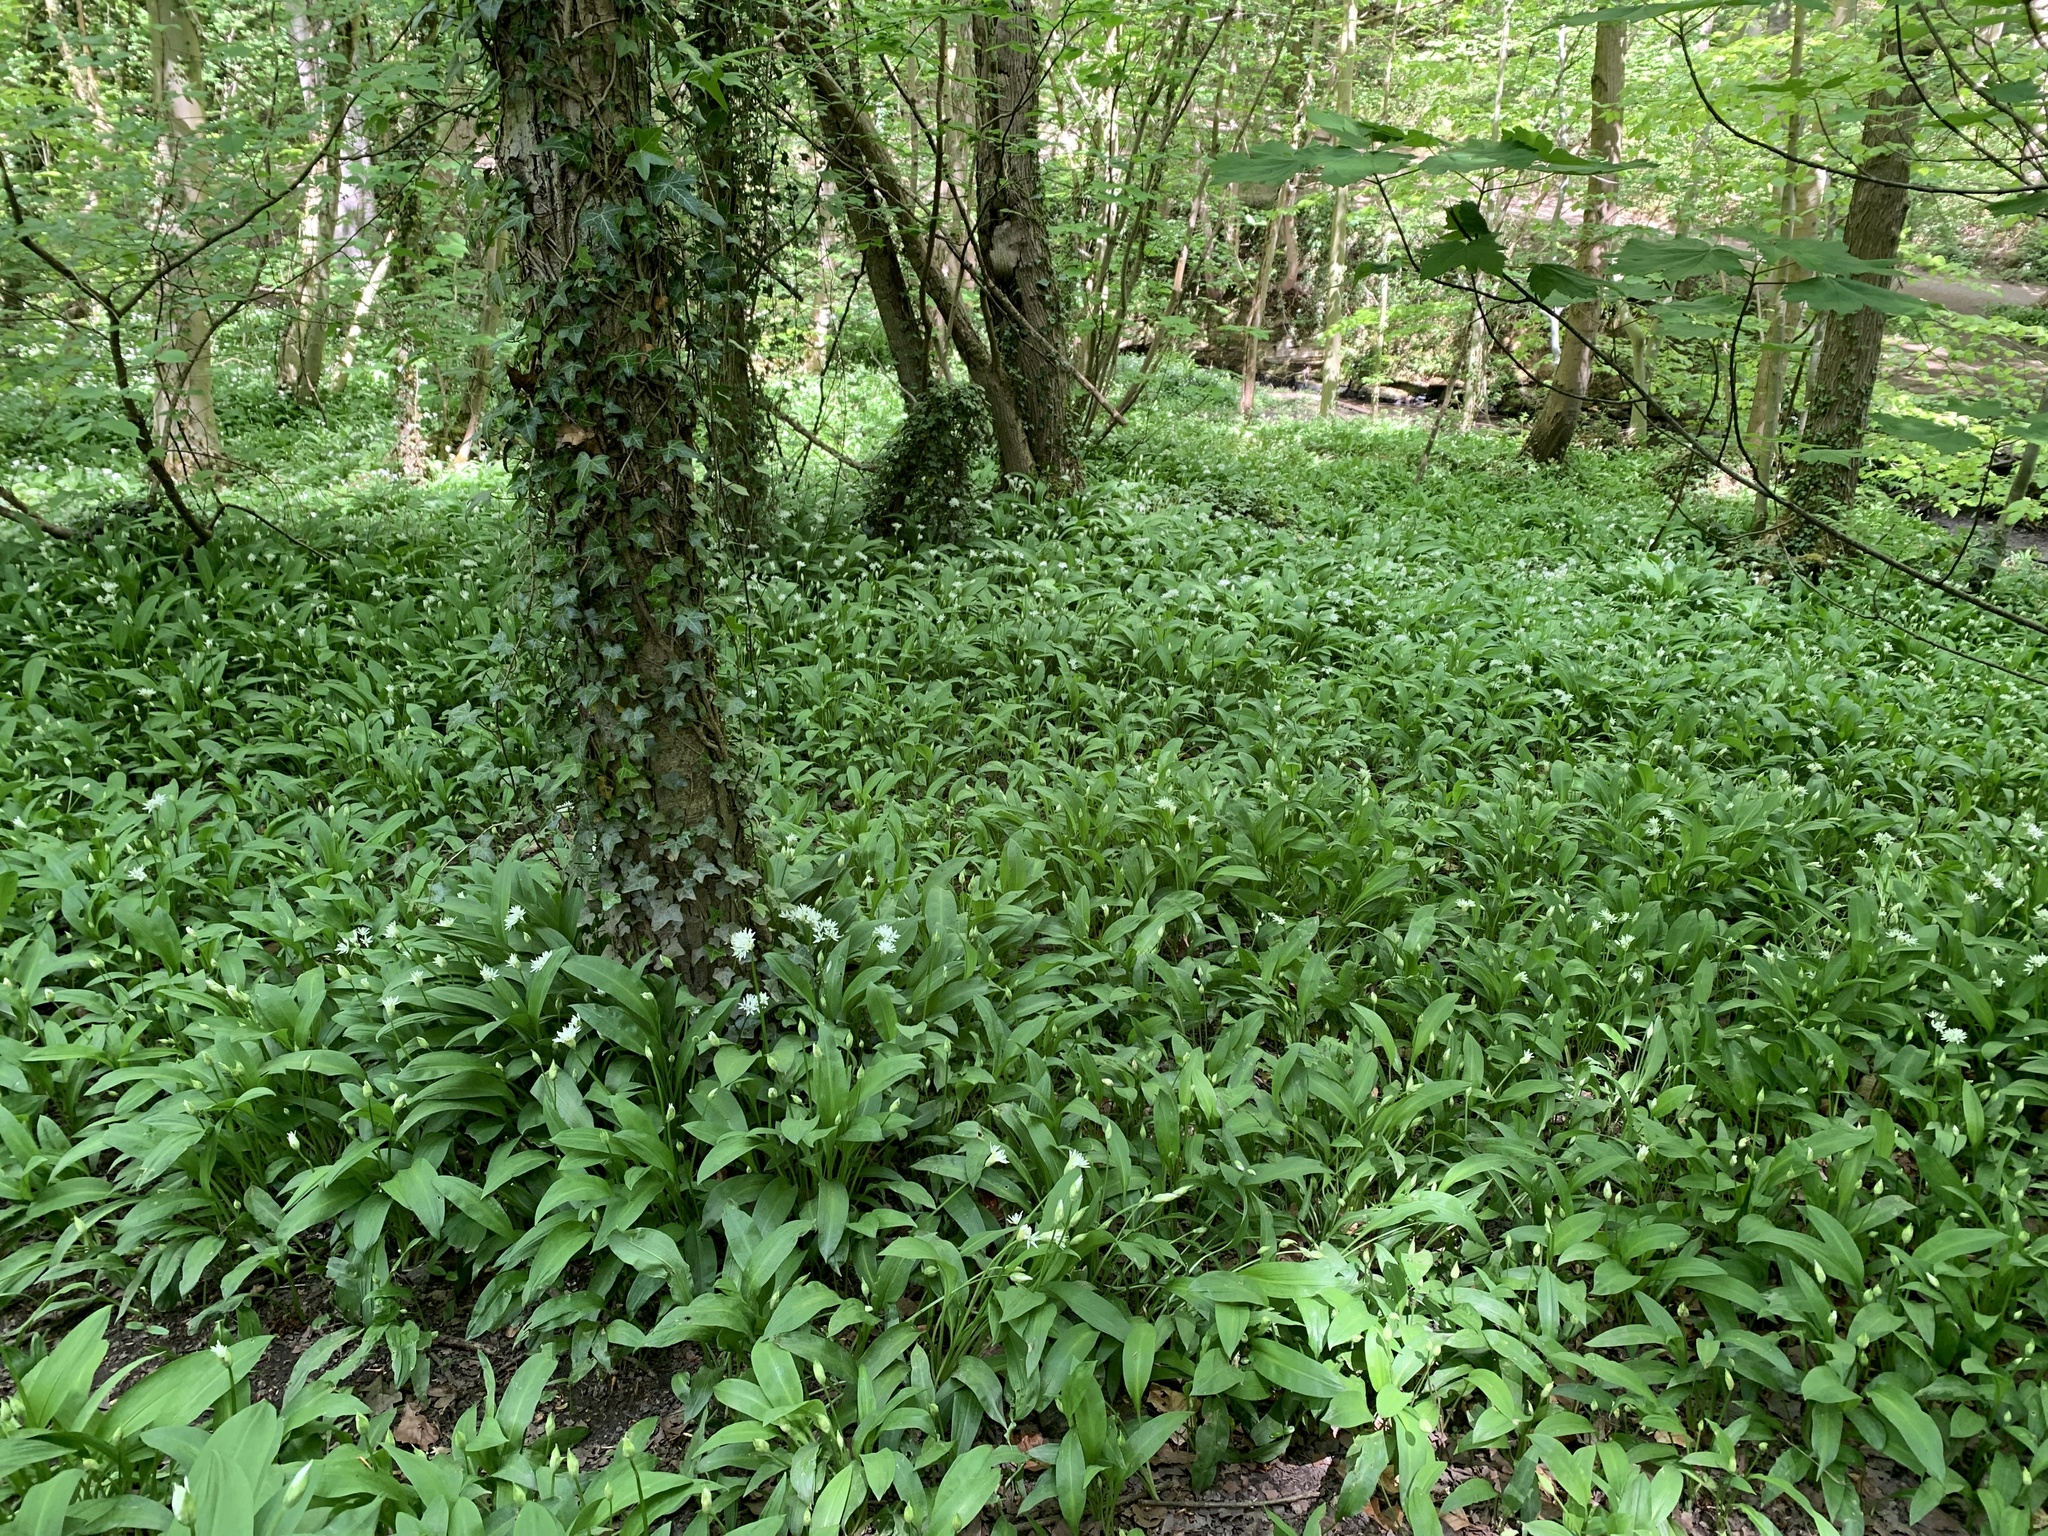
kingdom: Plantae
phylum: Tracheophyta
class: Liliopsida
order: Asparagales
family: Amaryllidaceae
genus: Allium
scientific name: Allium ursinum
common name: Ramsons
